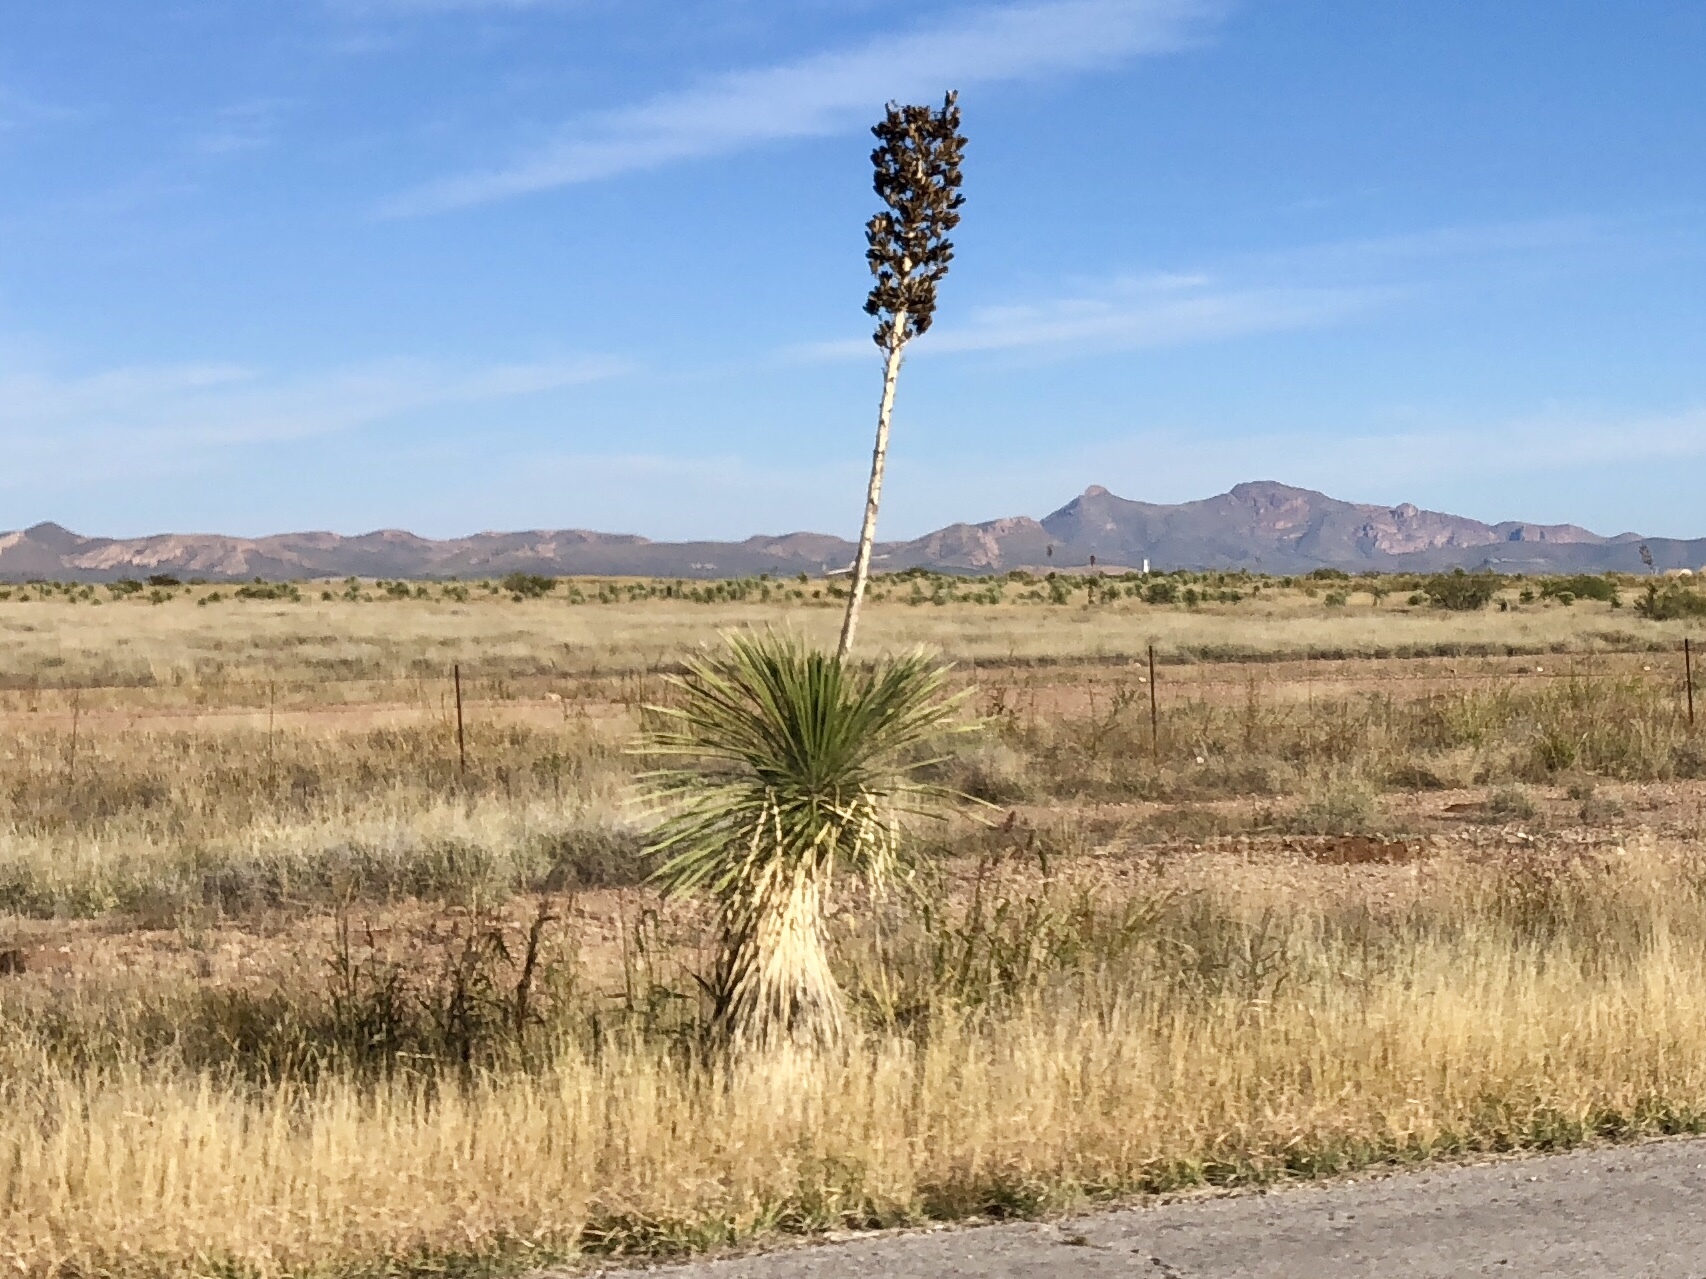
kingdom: Plantae
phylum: Tracheophyta
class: Liliopsida
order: Asparagales
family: Asparagaceae
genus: Yucca
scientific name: Yucca elata
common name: Palmella
